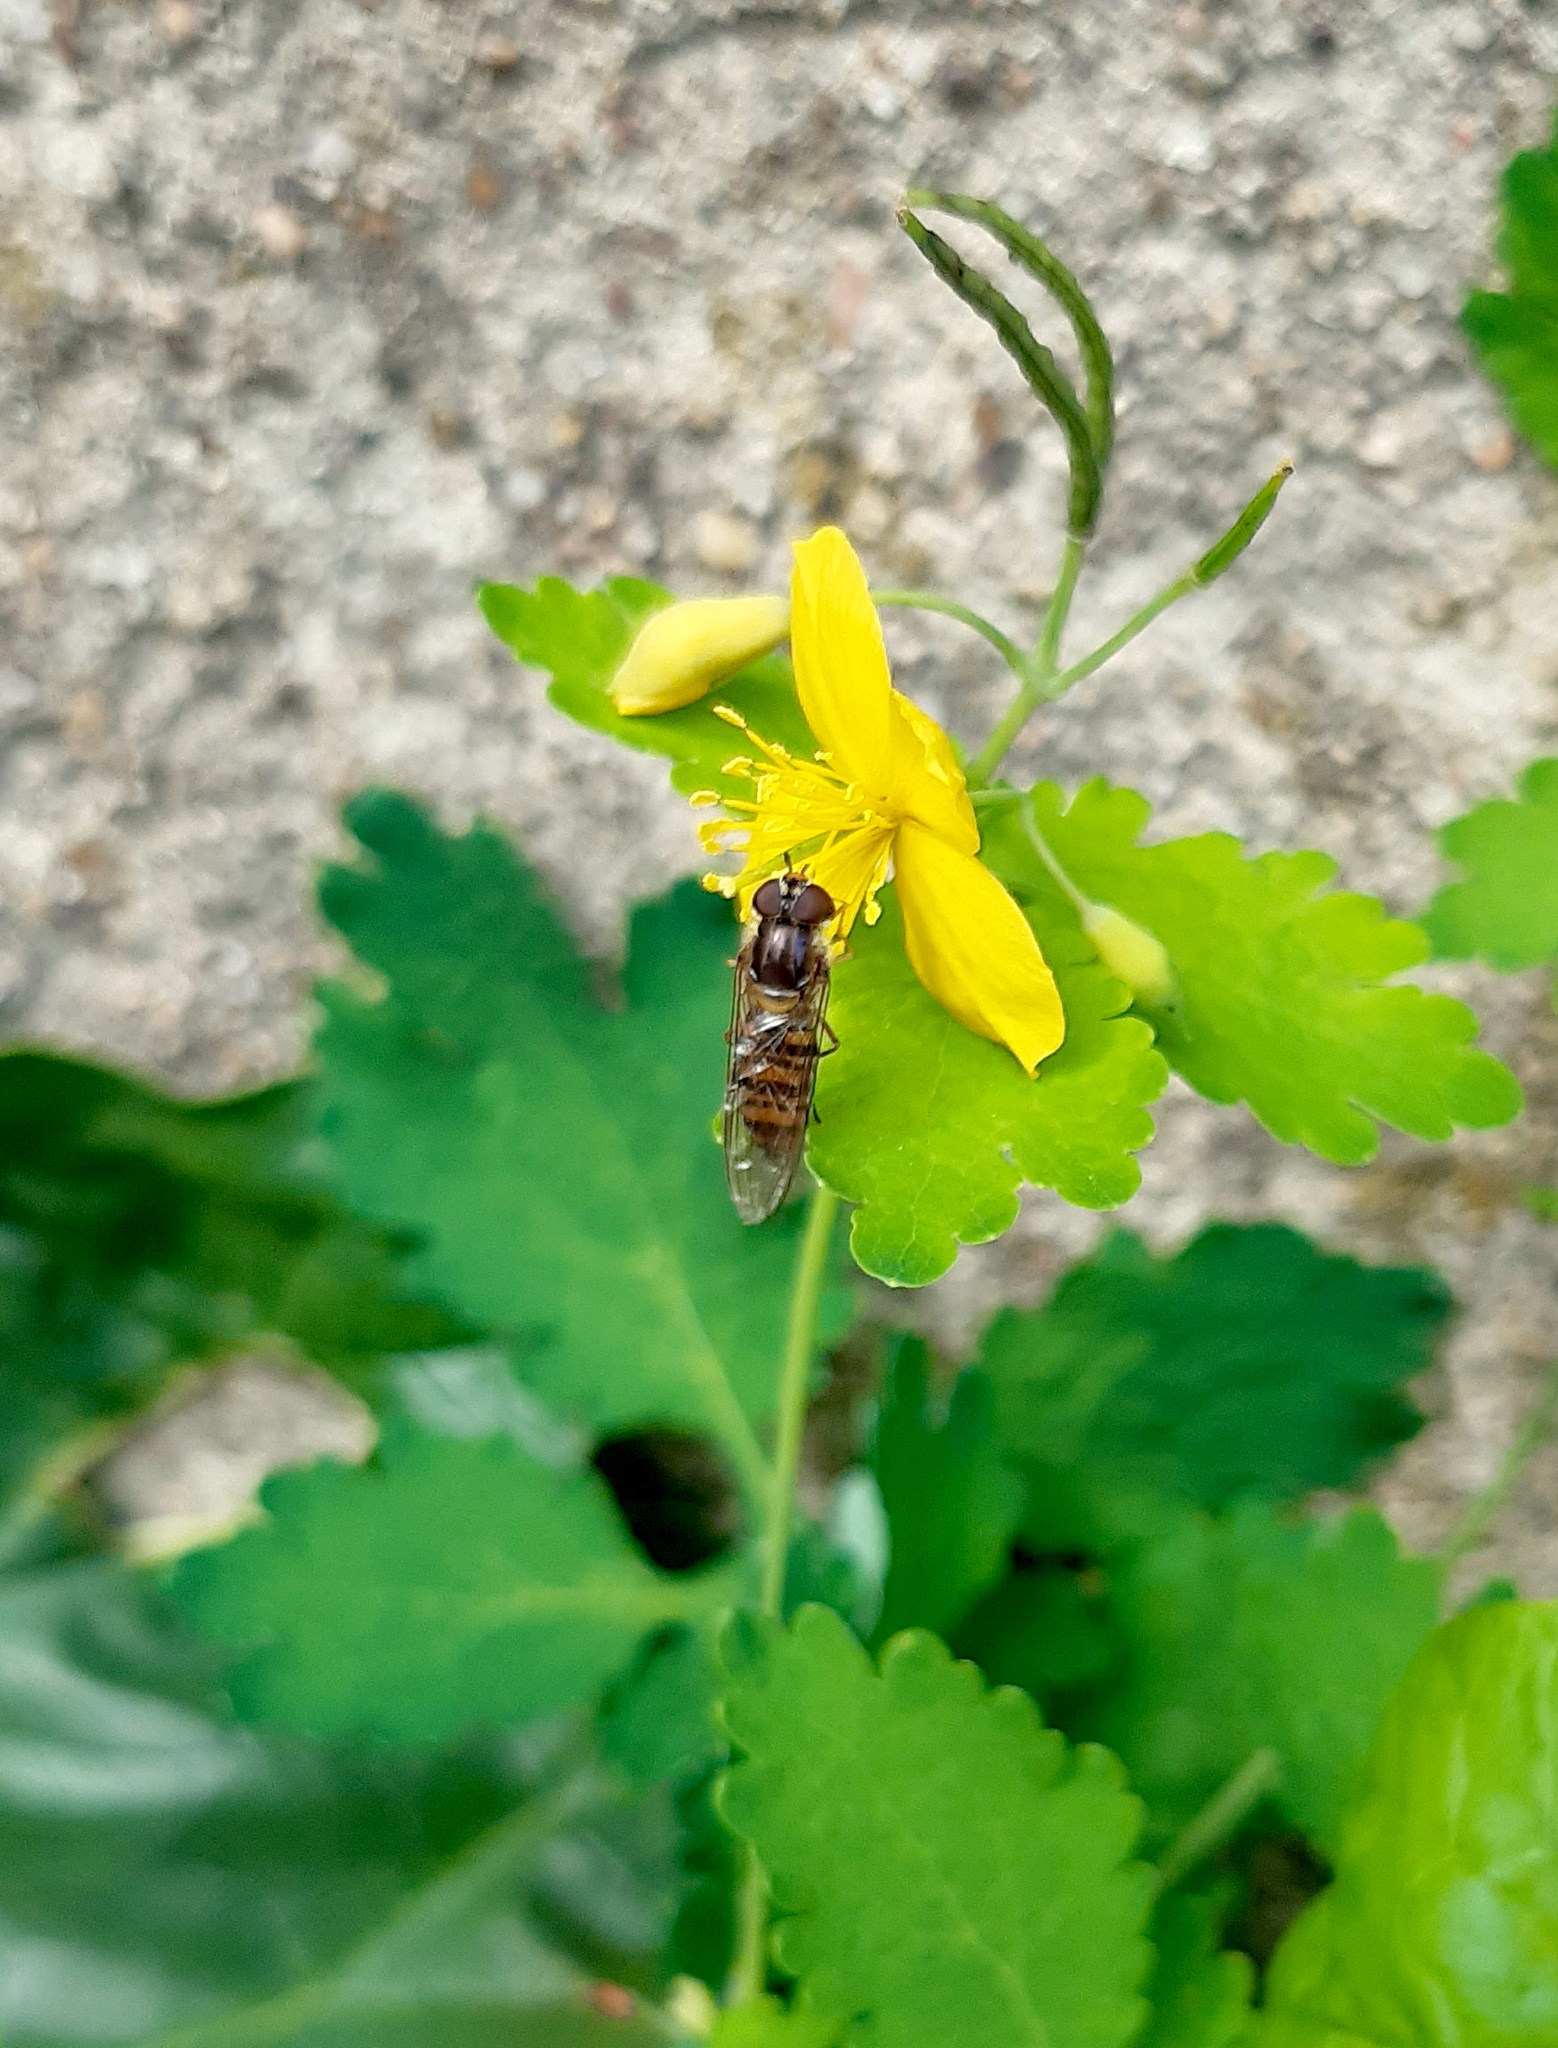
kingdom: Animalia
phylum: Arthropoda
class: Insecta
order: Diptera
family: Syrphidae
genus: Episyrphus
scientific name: Episyrphus balteatus
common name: Marmalade hoverfly
